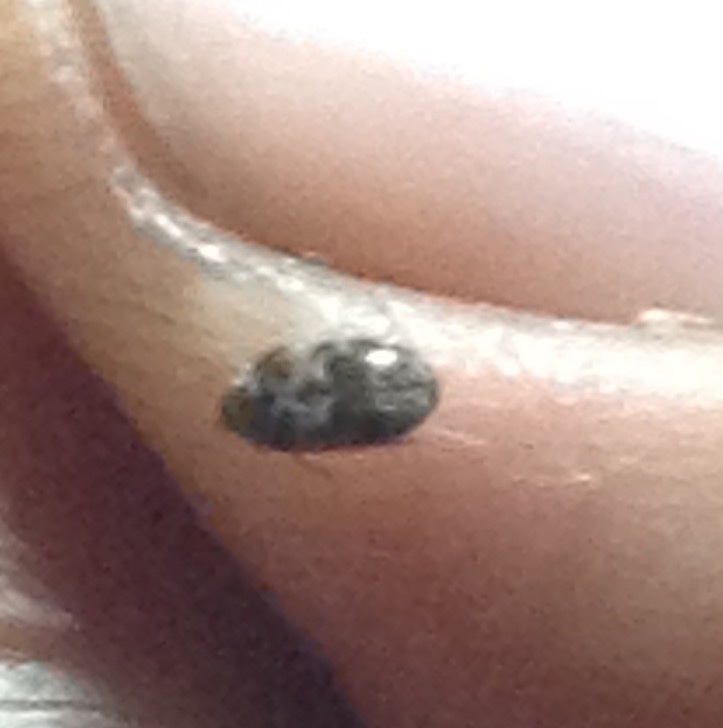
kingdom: Animalia
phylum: Arthropoda
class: Insecta
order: Coleoptera
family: Dermestidae
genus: Trogoderma
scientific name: Trogoderma sternale
